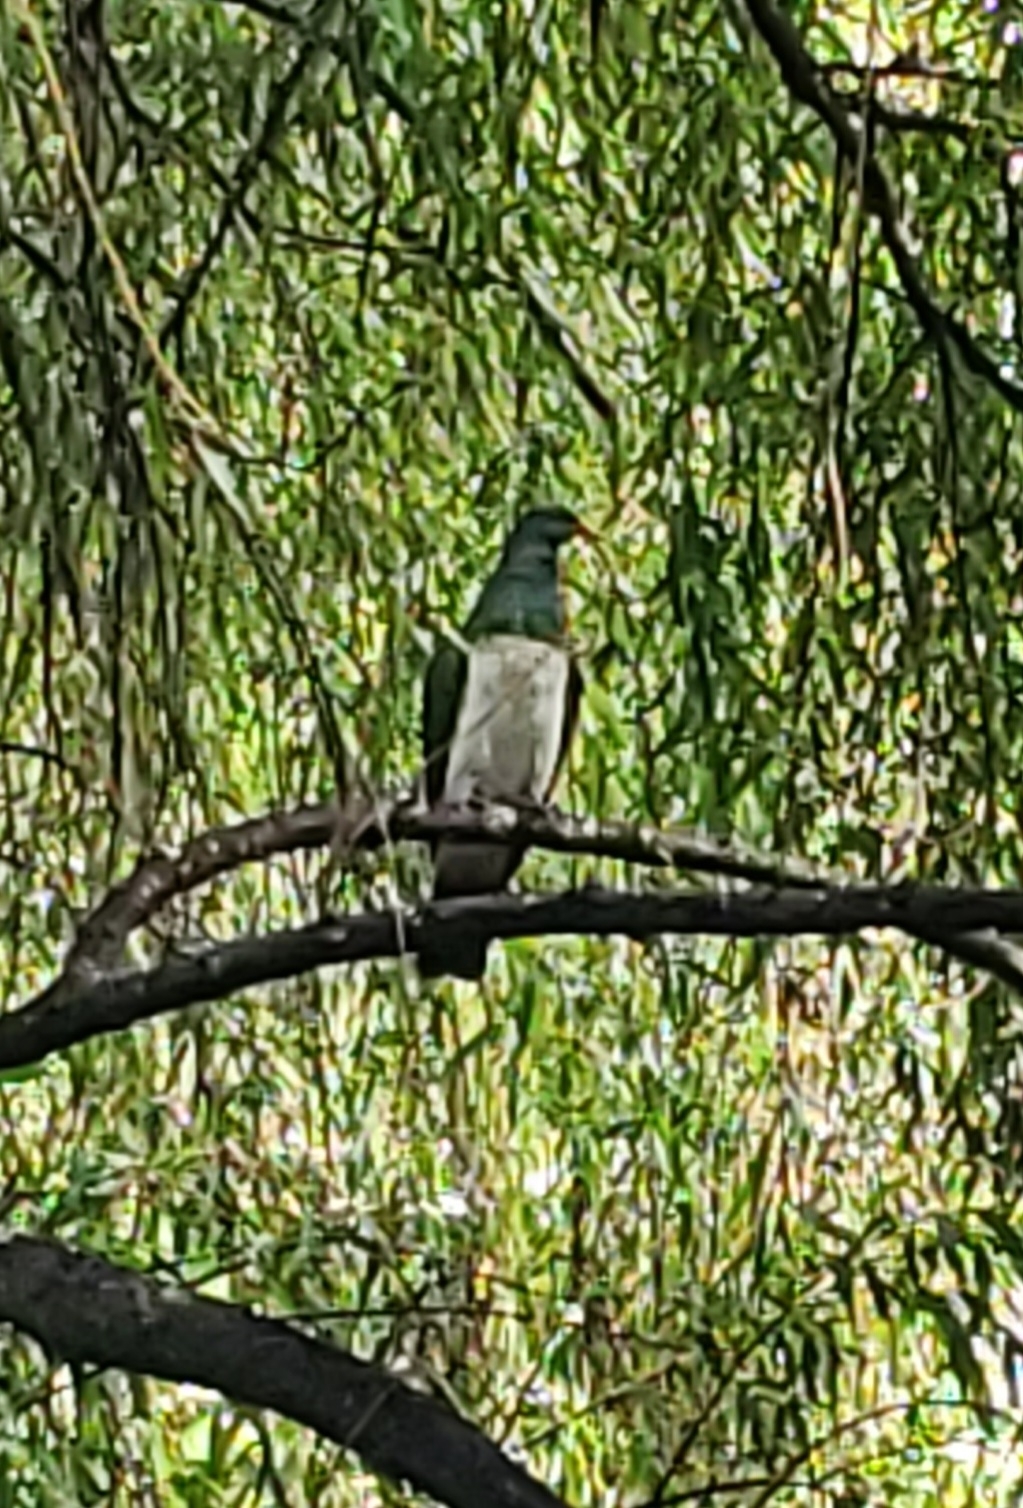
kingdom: Animalia
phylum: Chordata
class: Aves
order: Columbiformes
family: Columbidae
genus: Hemiphaga
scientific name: Hemiphaga novaeseelandiae
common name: New zealand pigeon
